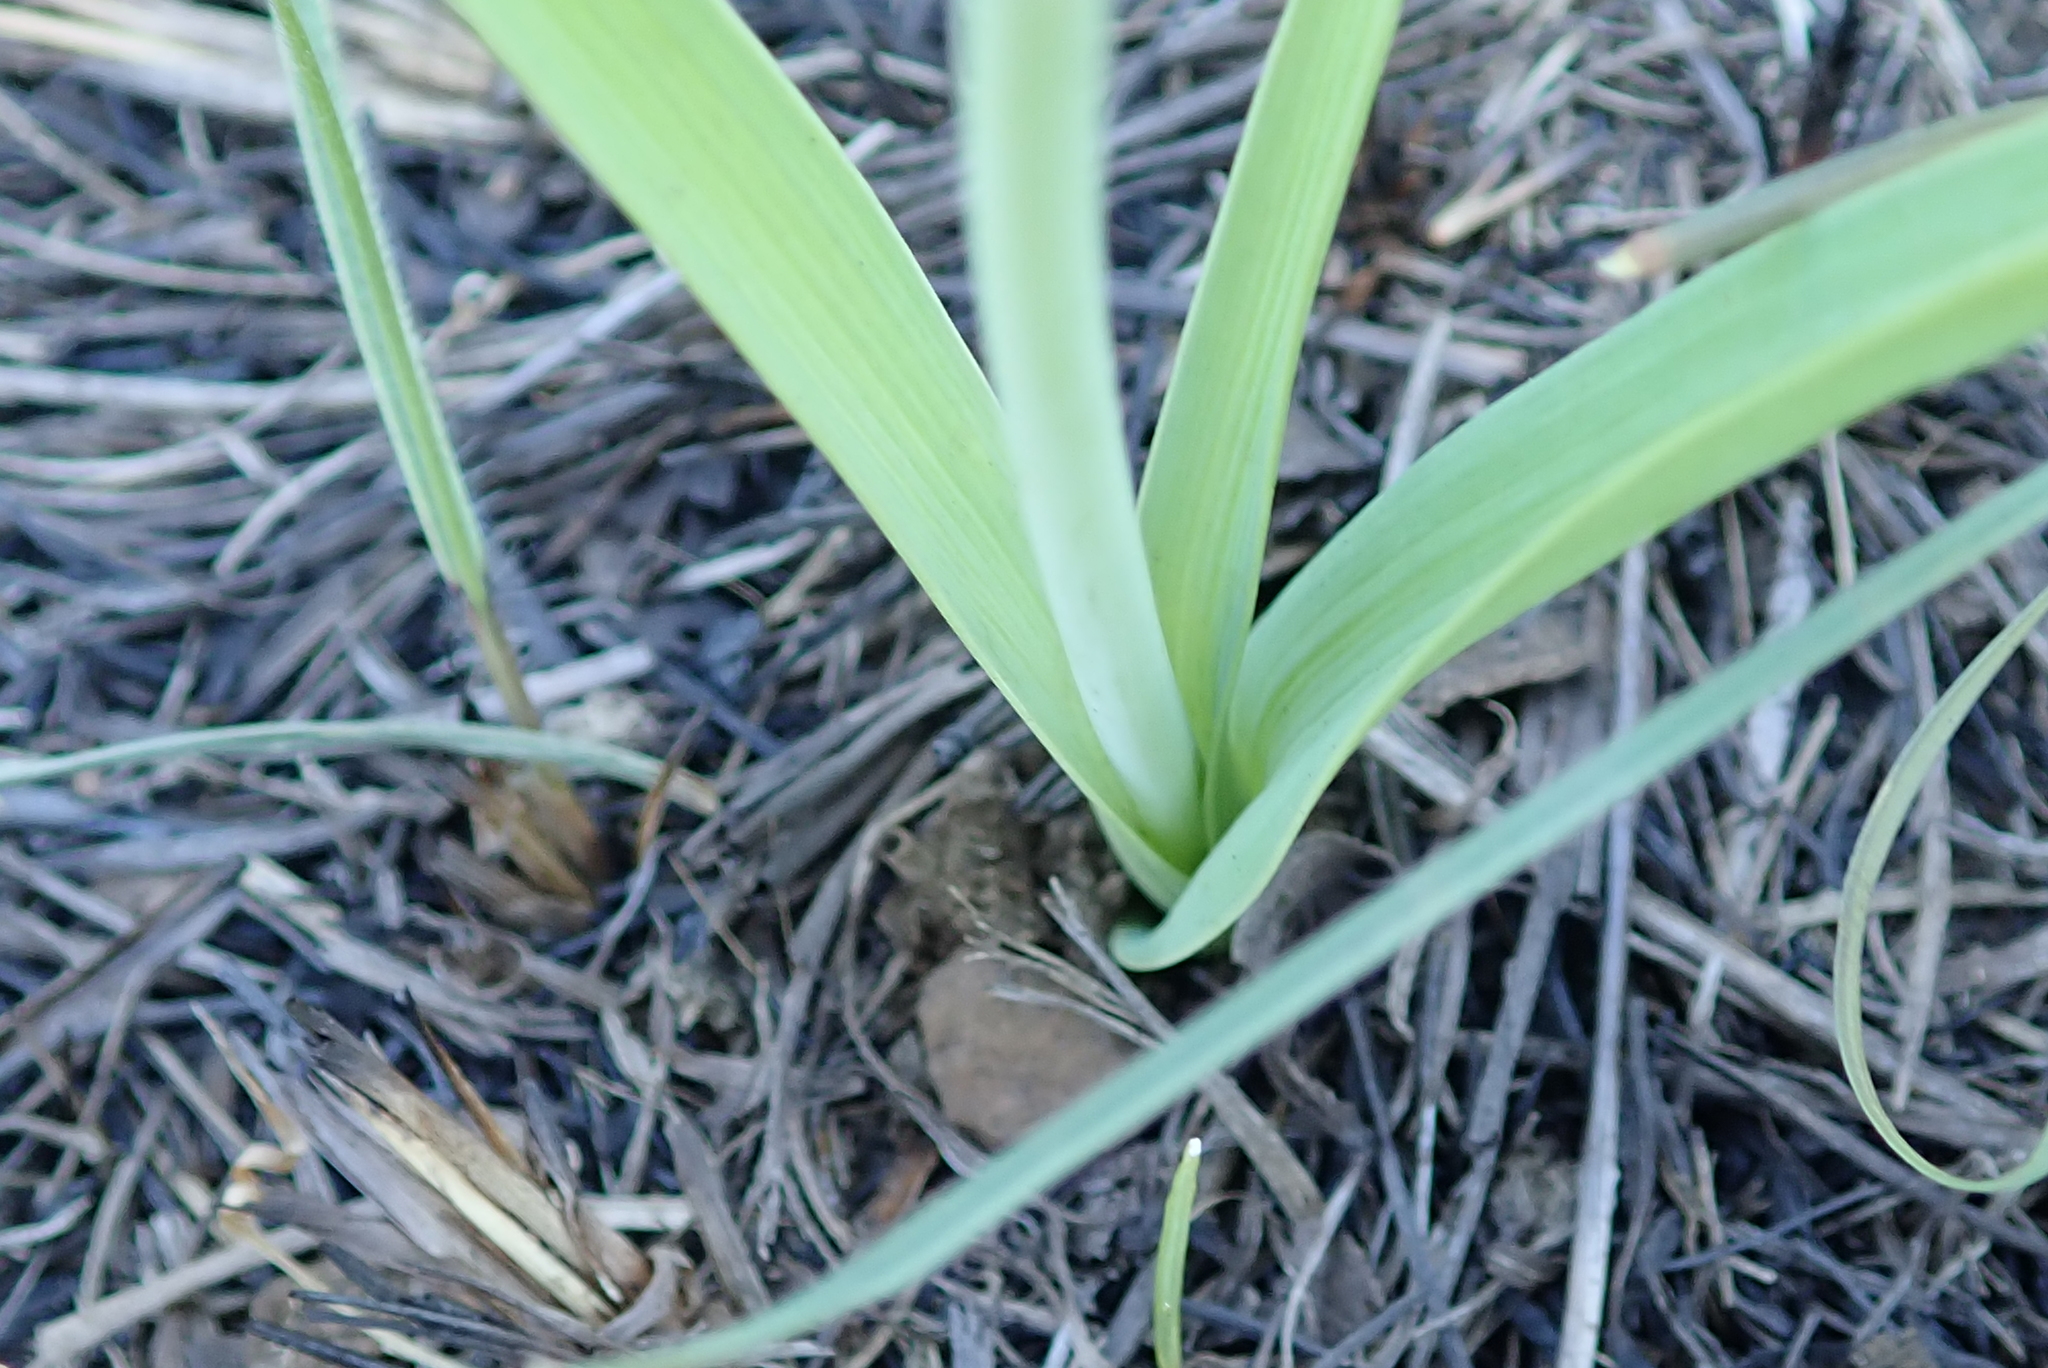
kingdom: Plantae
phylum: Tracheophyta
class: Liliopsida
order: Asparagales
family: Asparagaceae
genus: Merwilla
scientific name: Merwilla plumbea
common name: Blue-squill
